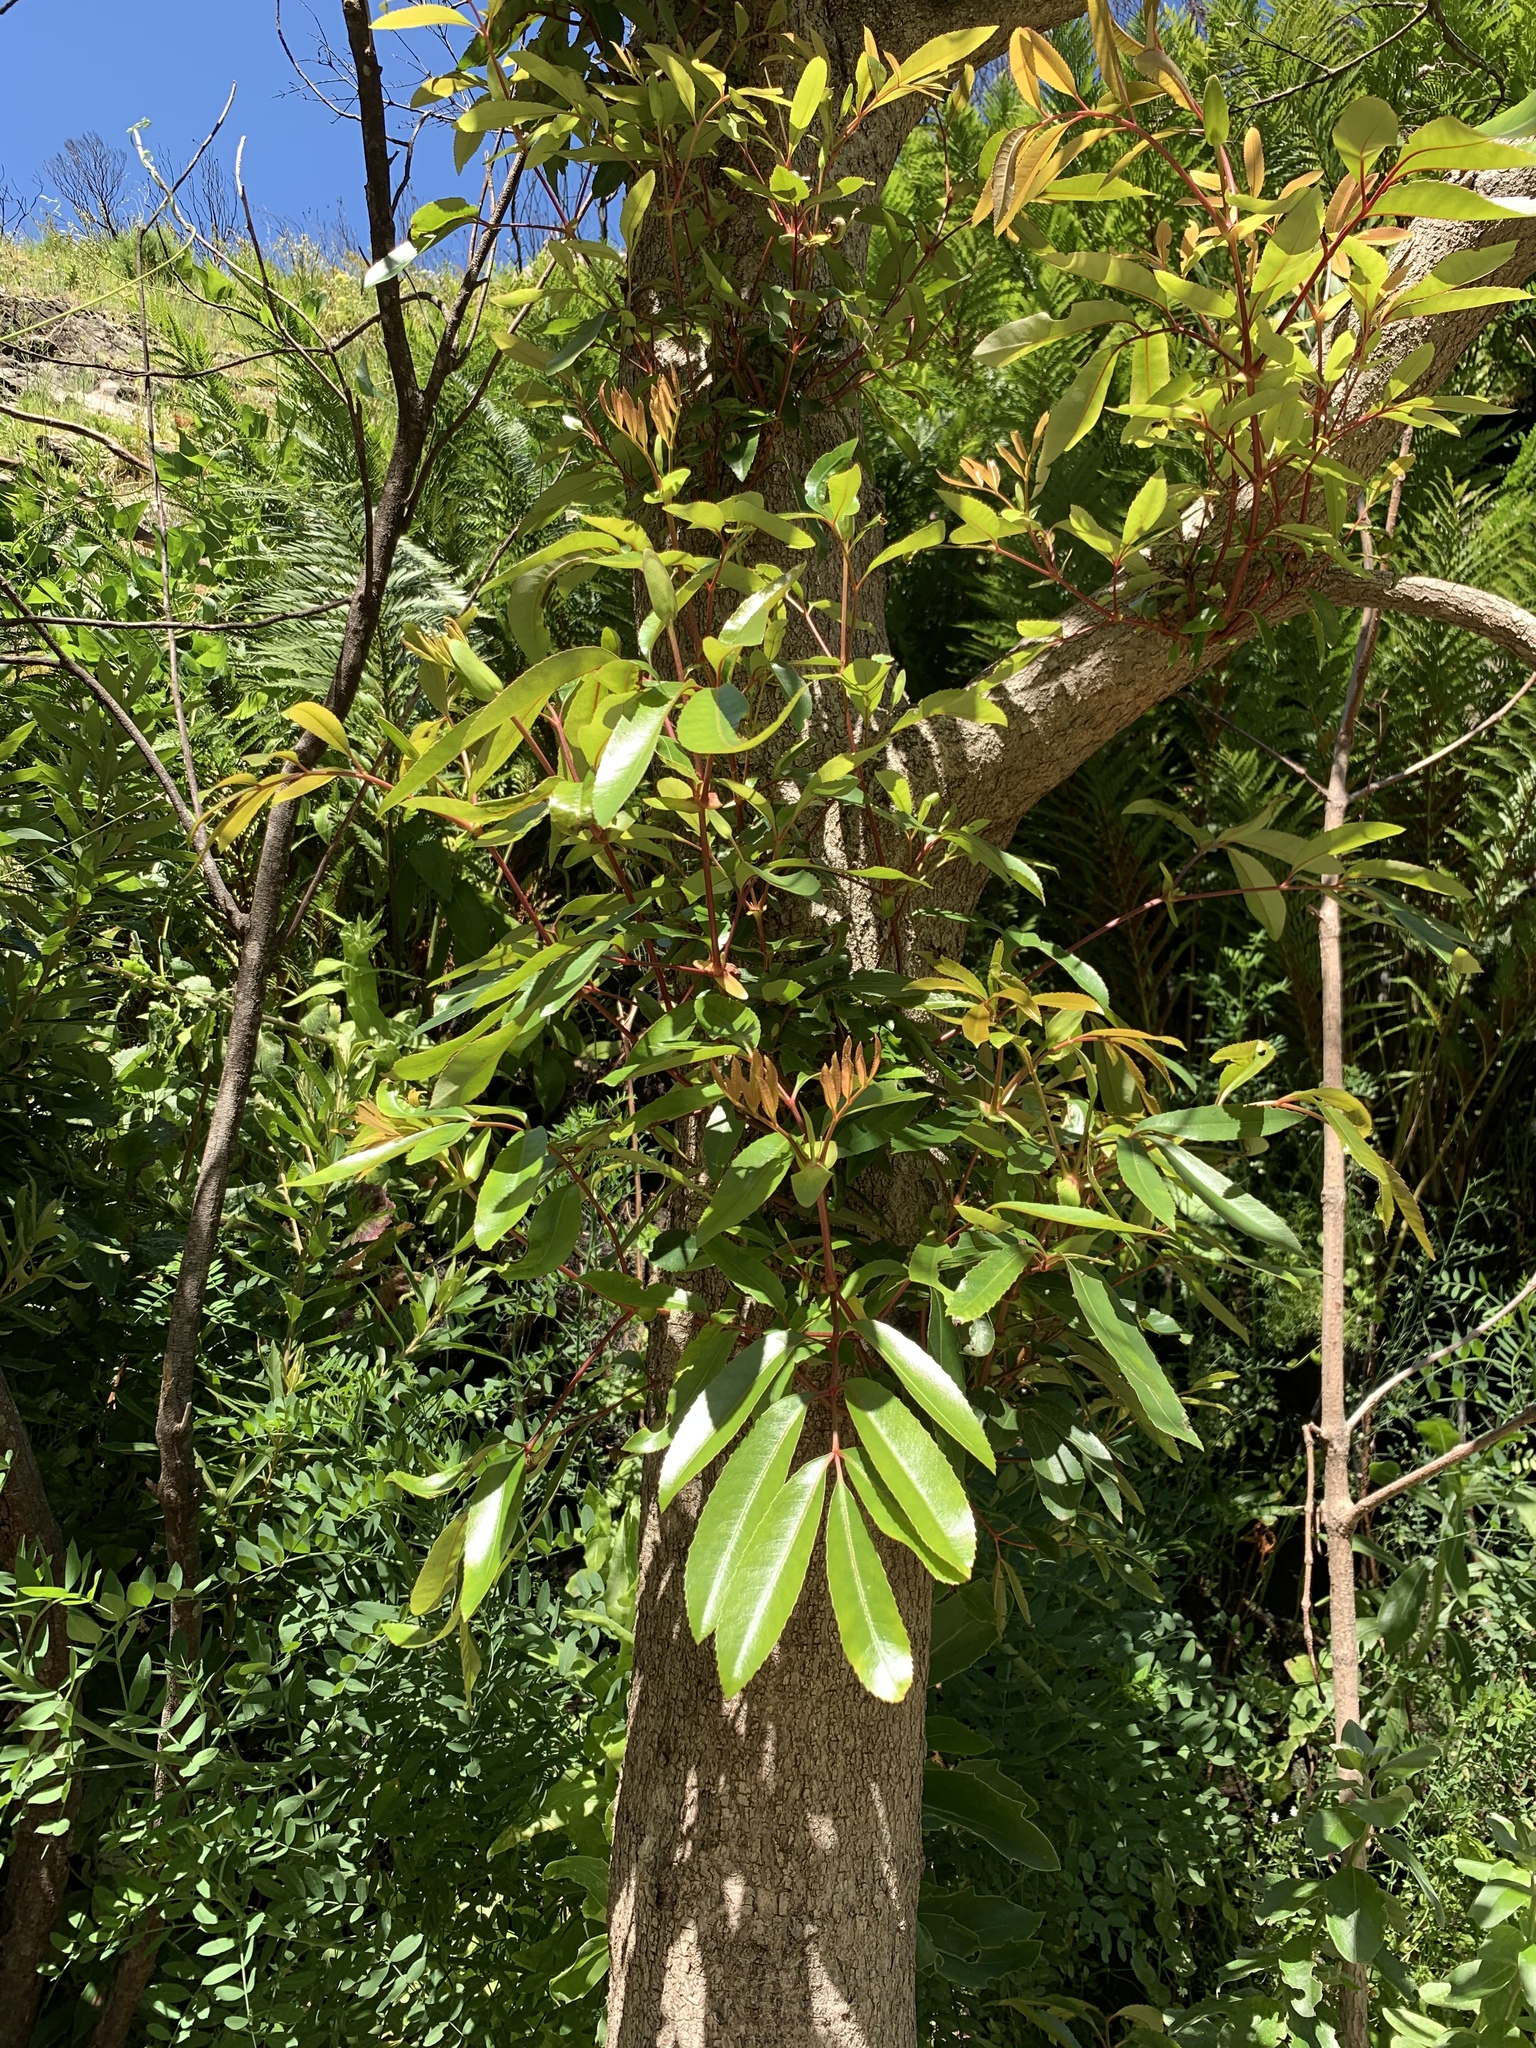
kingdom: Plantae
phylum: Tracheophyta
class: Magnoliopsida
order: Oxalidales
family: Cunoniaceae
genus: Cunonia
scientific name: Cunonia capensis
